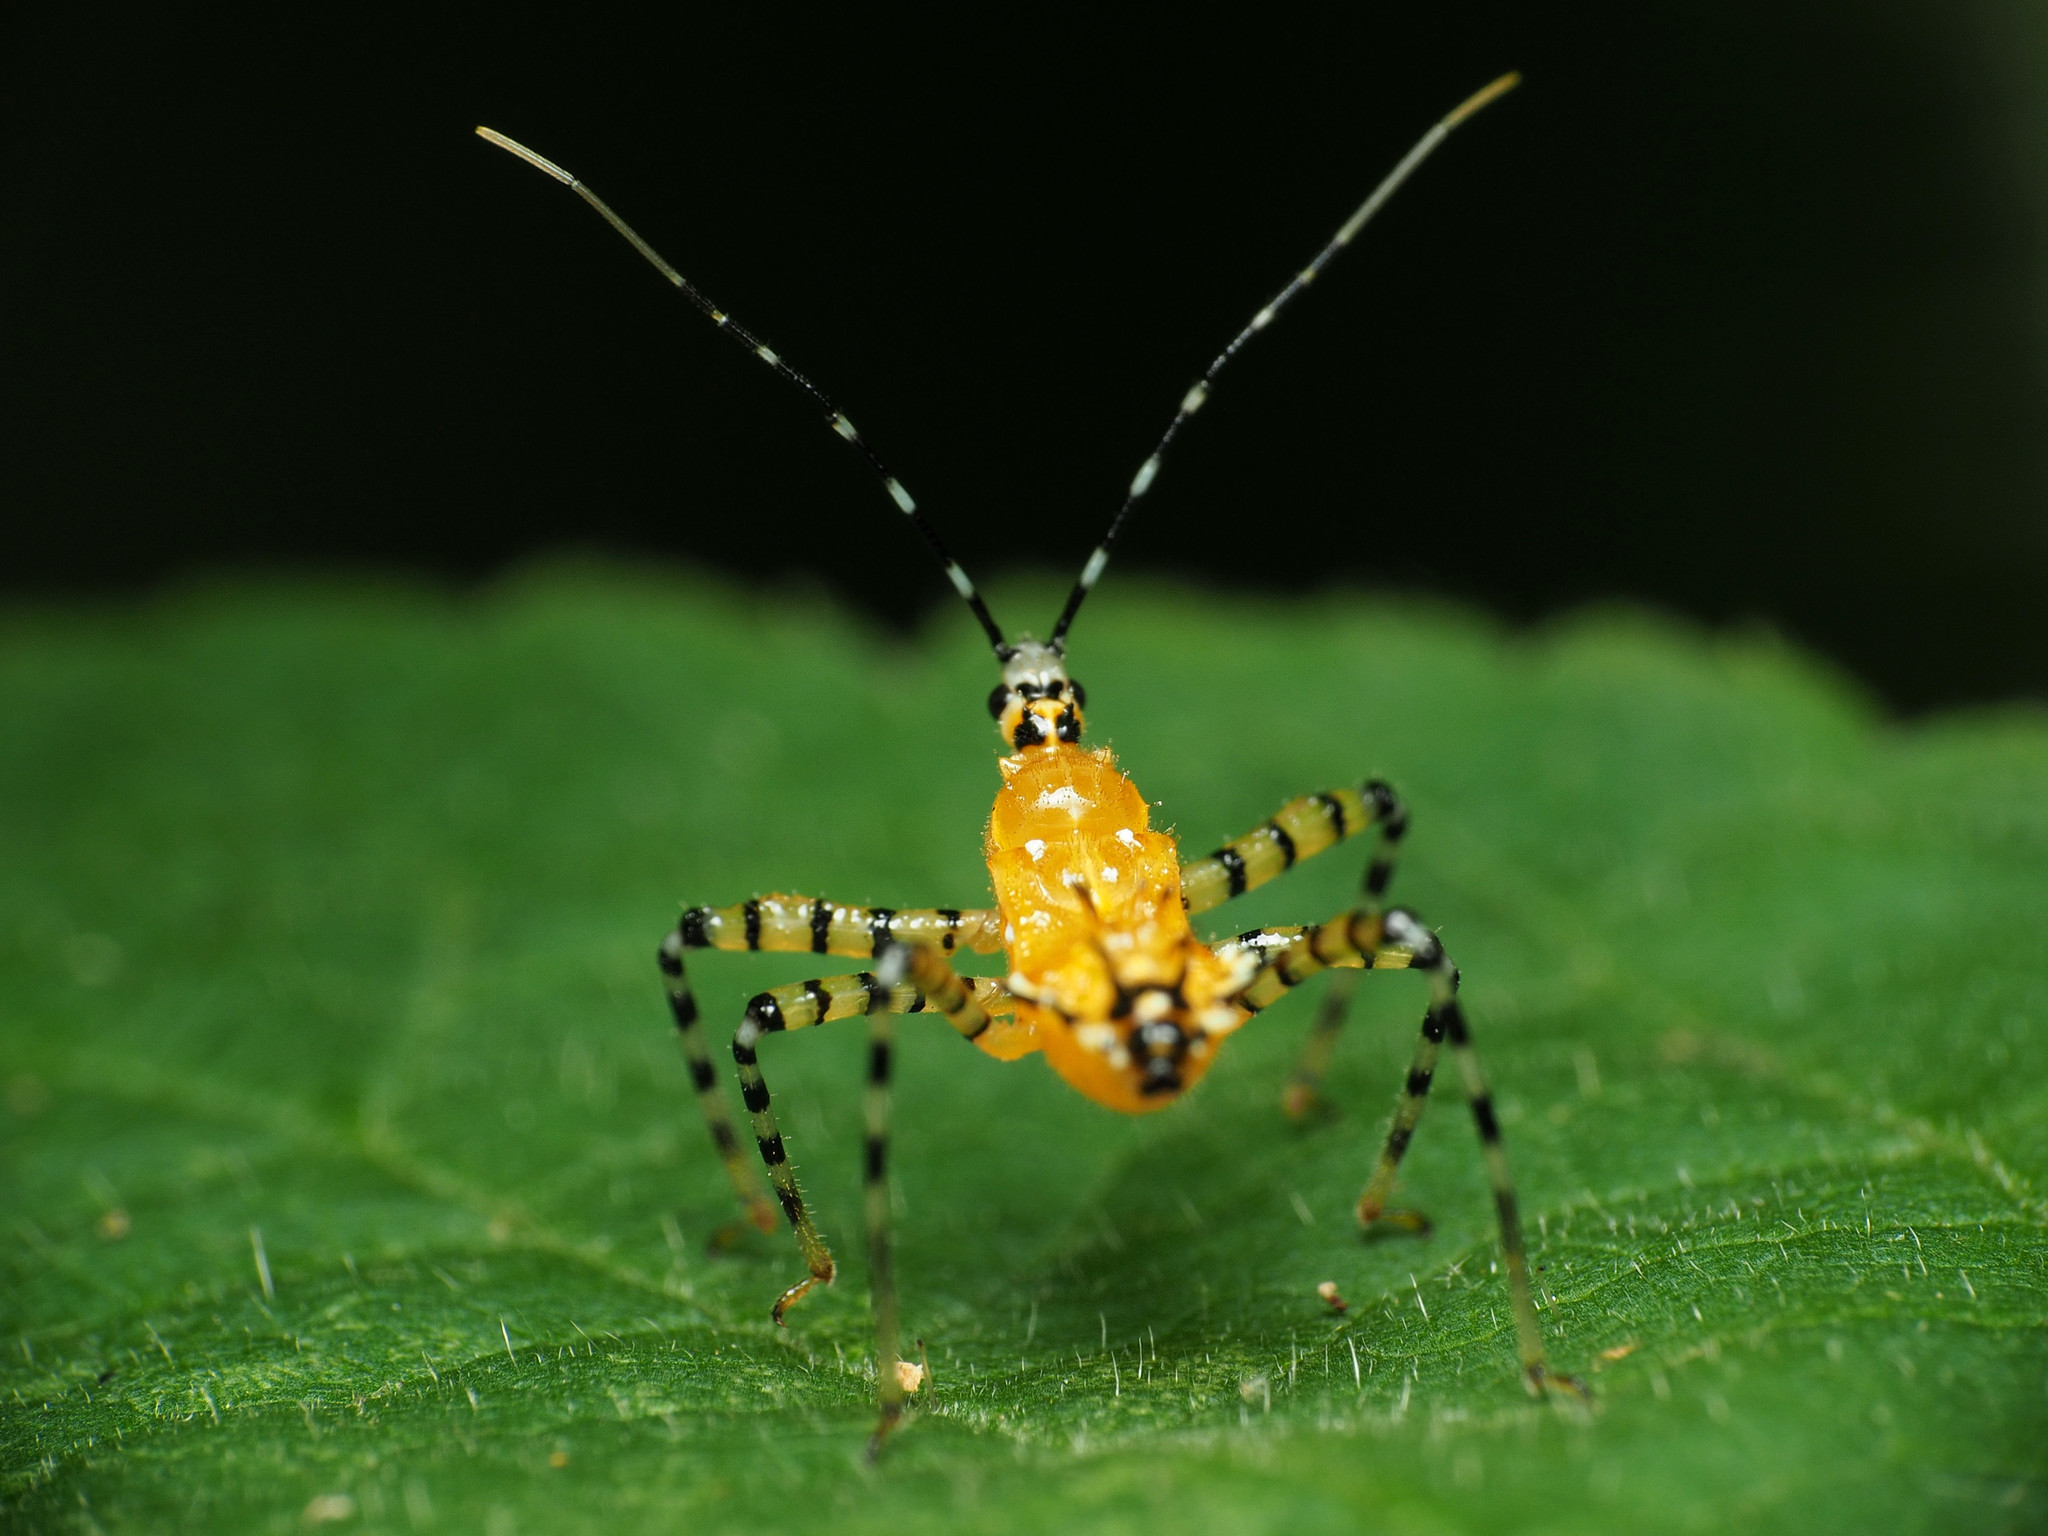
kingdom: Animalia
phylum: Arthropoda
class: Insecta
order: Hemiptera
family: Reduviidae
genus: Pselliopus
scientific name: Pselliopus barberi
